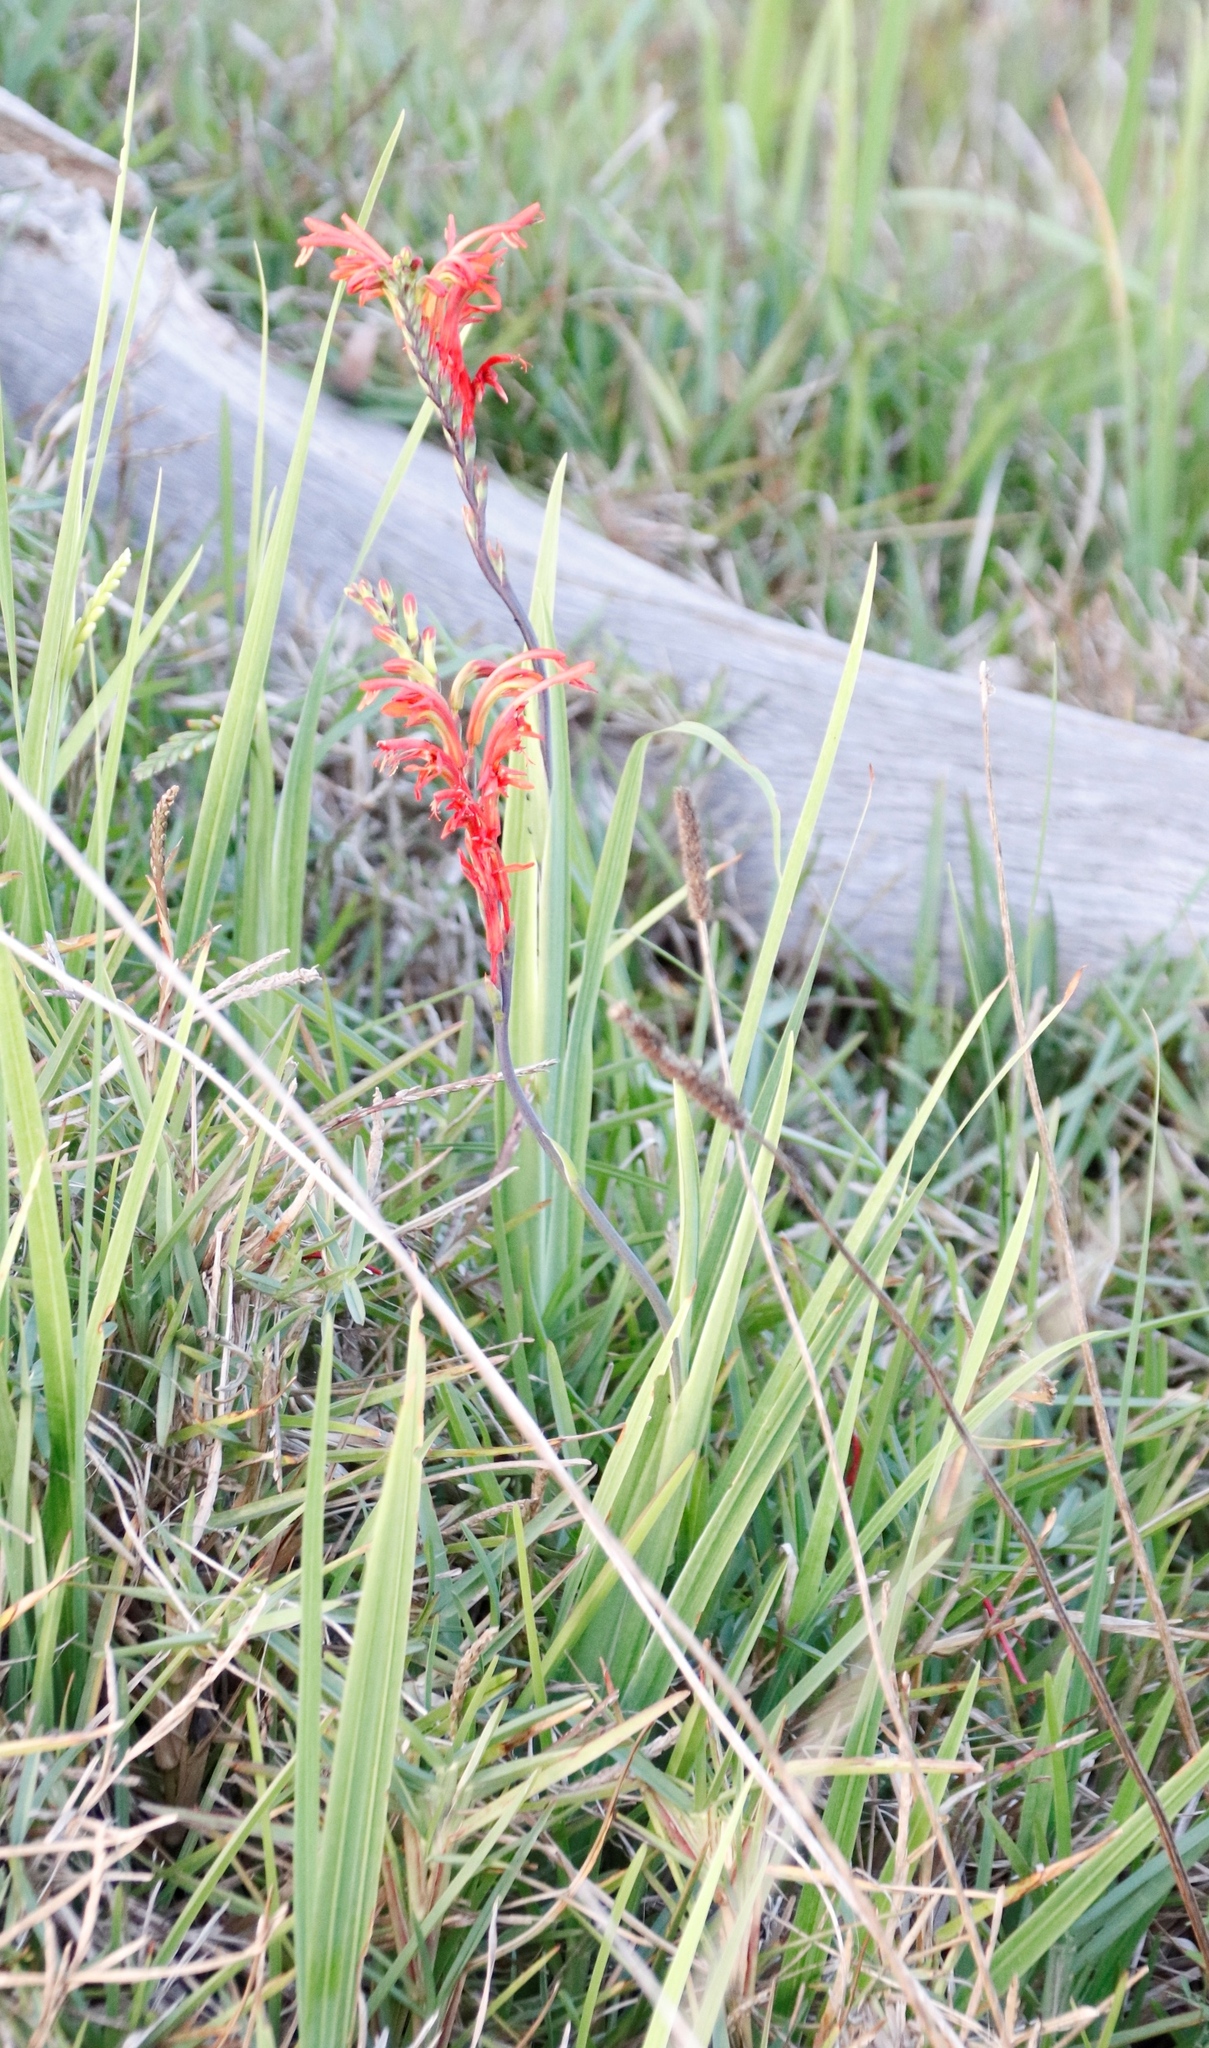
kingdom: Plantae
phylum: Tracheophyta
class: Liliopsida
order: Asparagales
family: Iridaceae
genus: Chasmanthe
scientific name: Chasmanthe aethiopica
